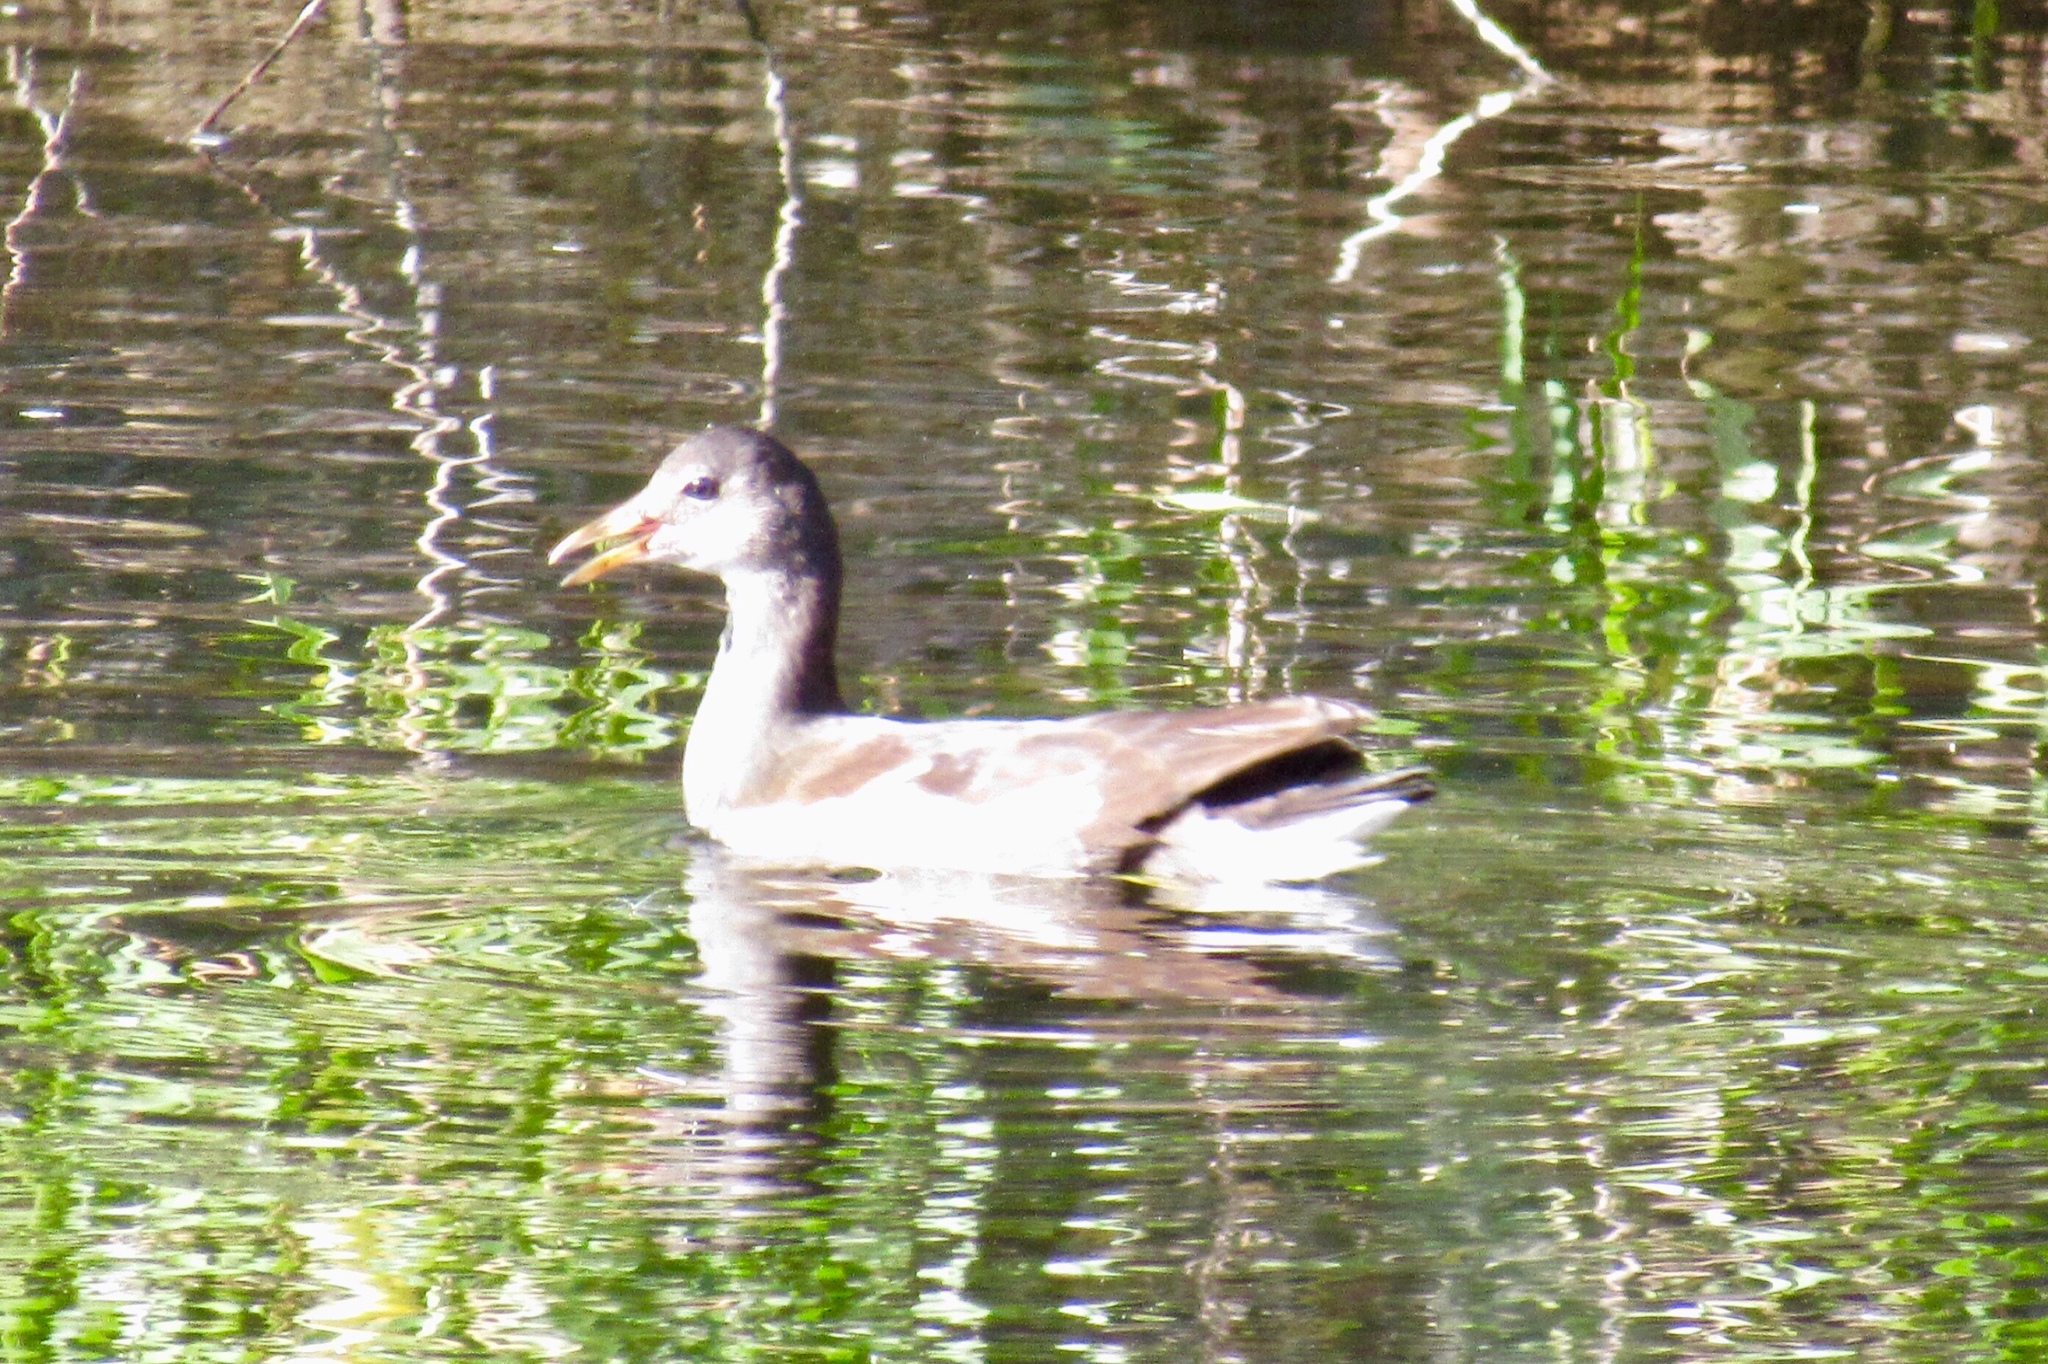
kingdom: Animalia
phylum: Chordata
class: Aves
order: Gruiformes
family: Rallidae
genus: Gallinula
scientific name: Gallinula chloropus
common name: Common moorhen
